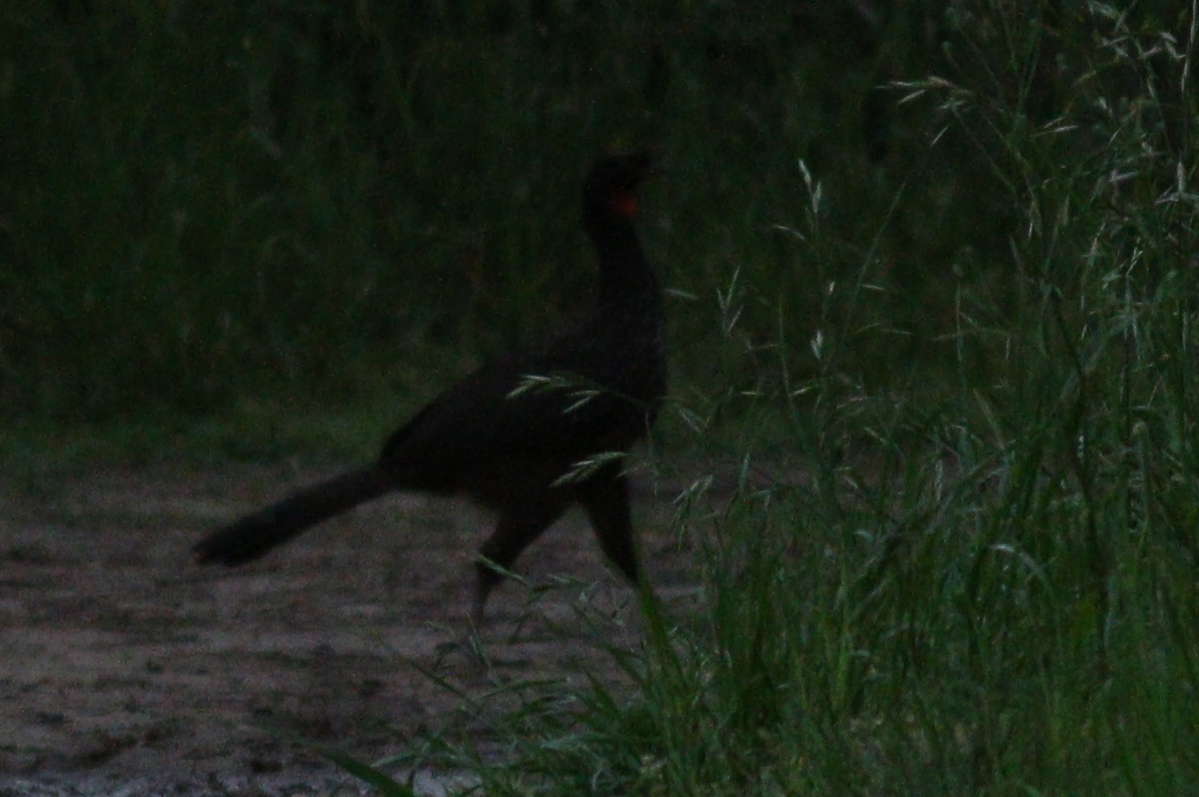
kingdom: Animalia
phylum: Chordata
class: Aves
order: Galliformes
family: Cracidae
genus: Penelope
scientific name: Penelope obscura
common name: Dusky-legged guan
